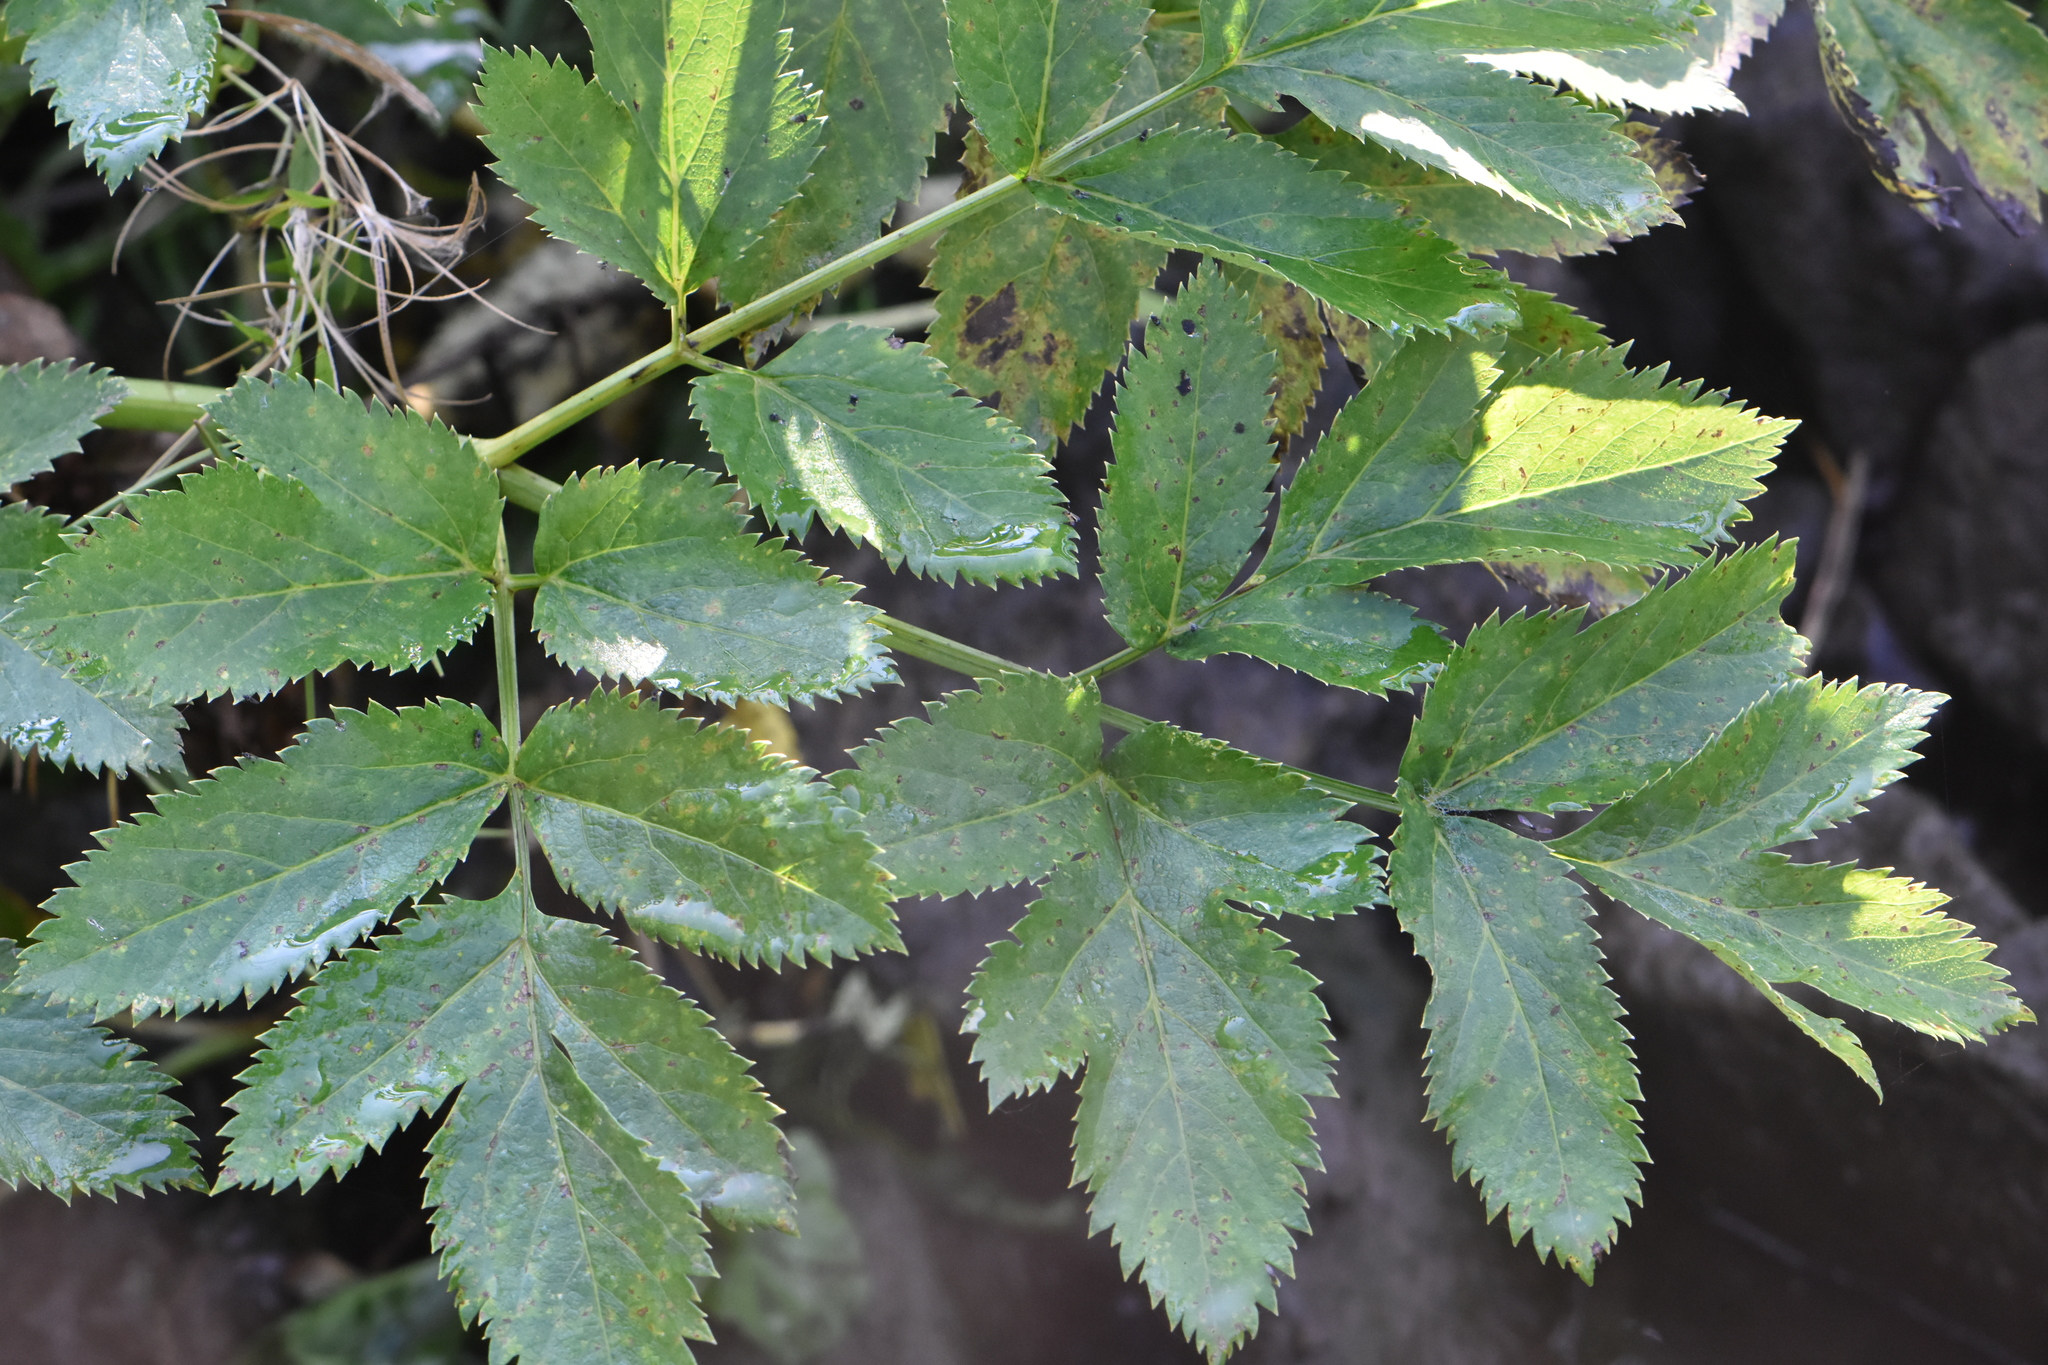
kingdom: Plantae
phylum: Tracheophyta
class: Magnoliopsida
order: Apiales
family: Apiaceae
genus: Angelica
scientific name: Angelica archangelica
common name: Garden angelica
